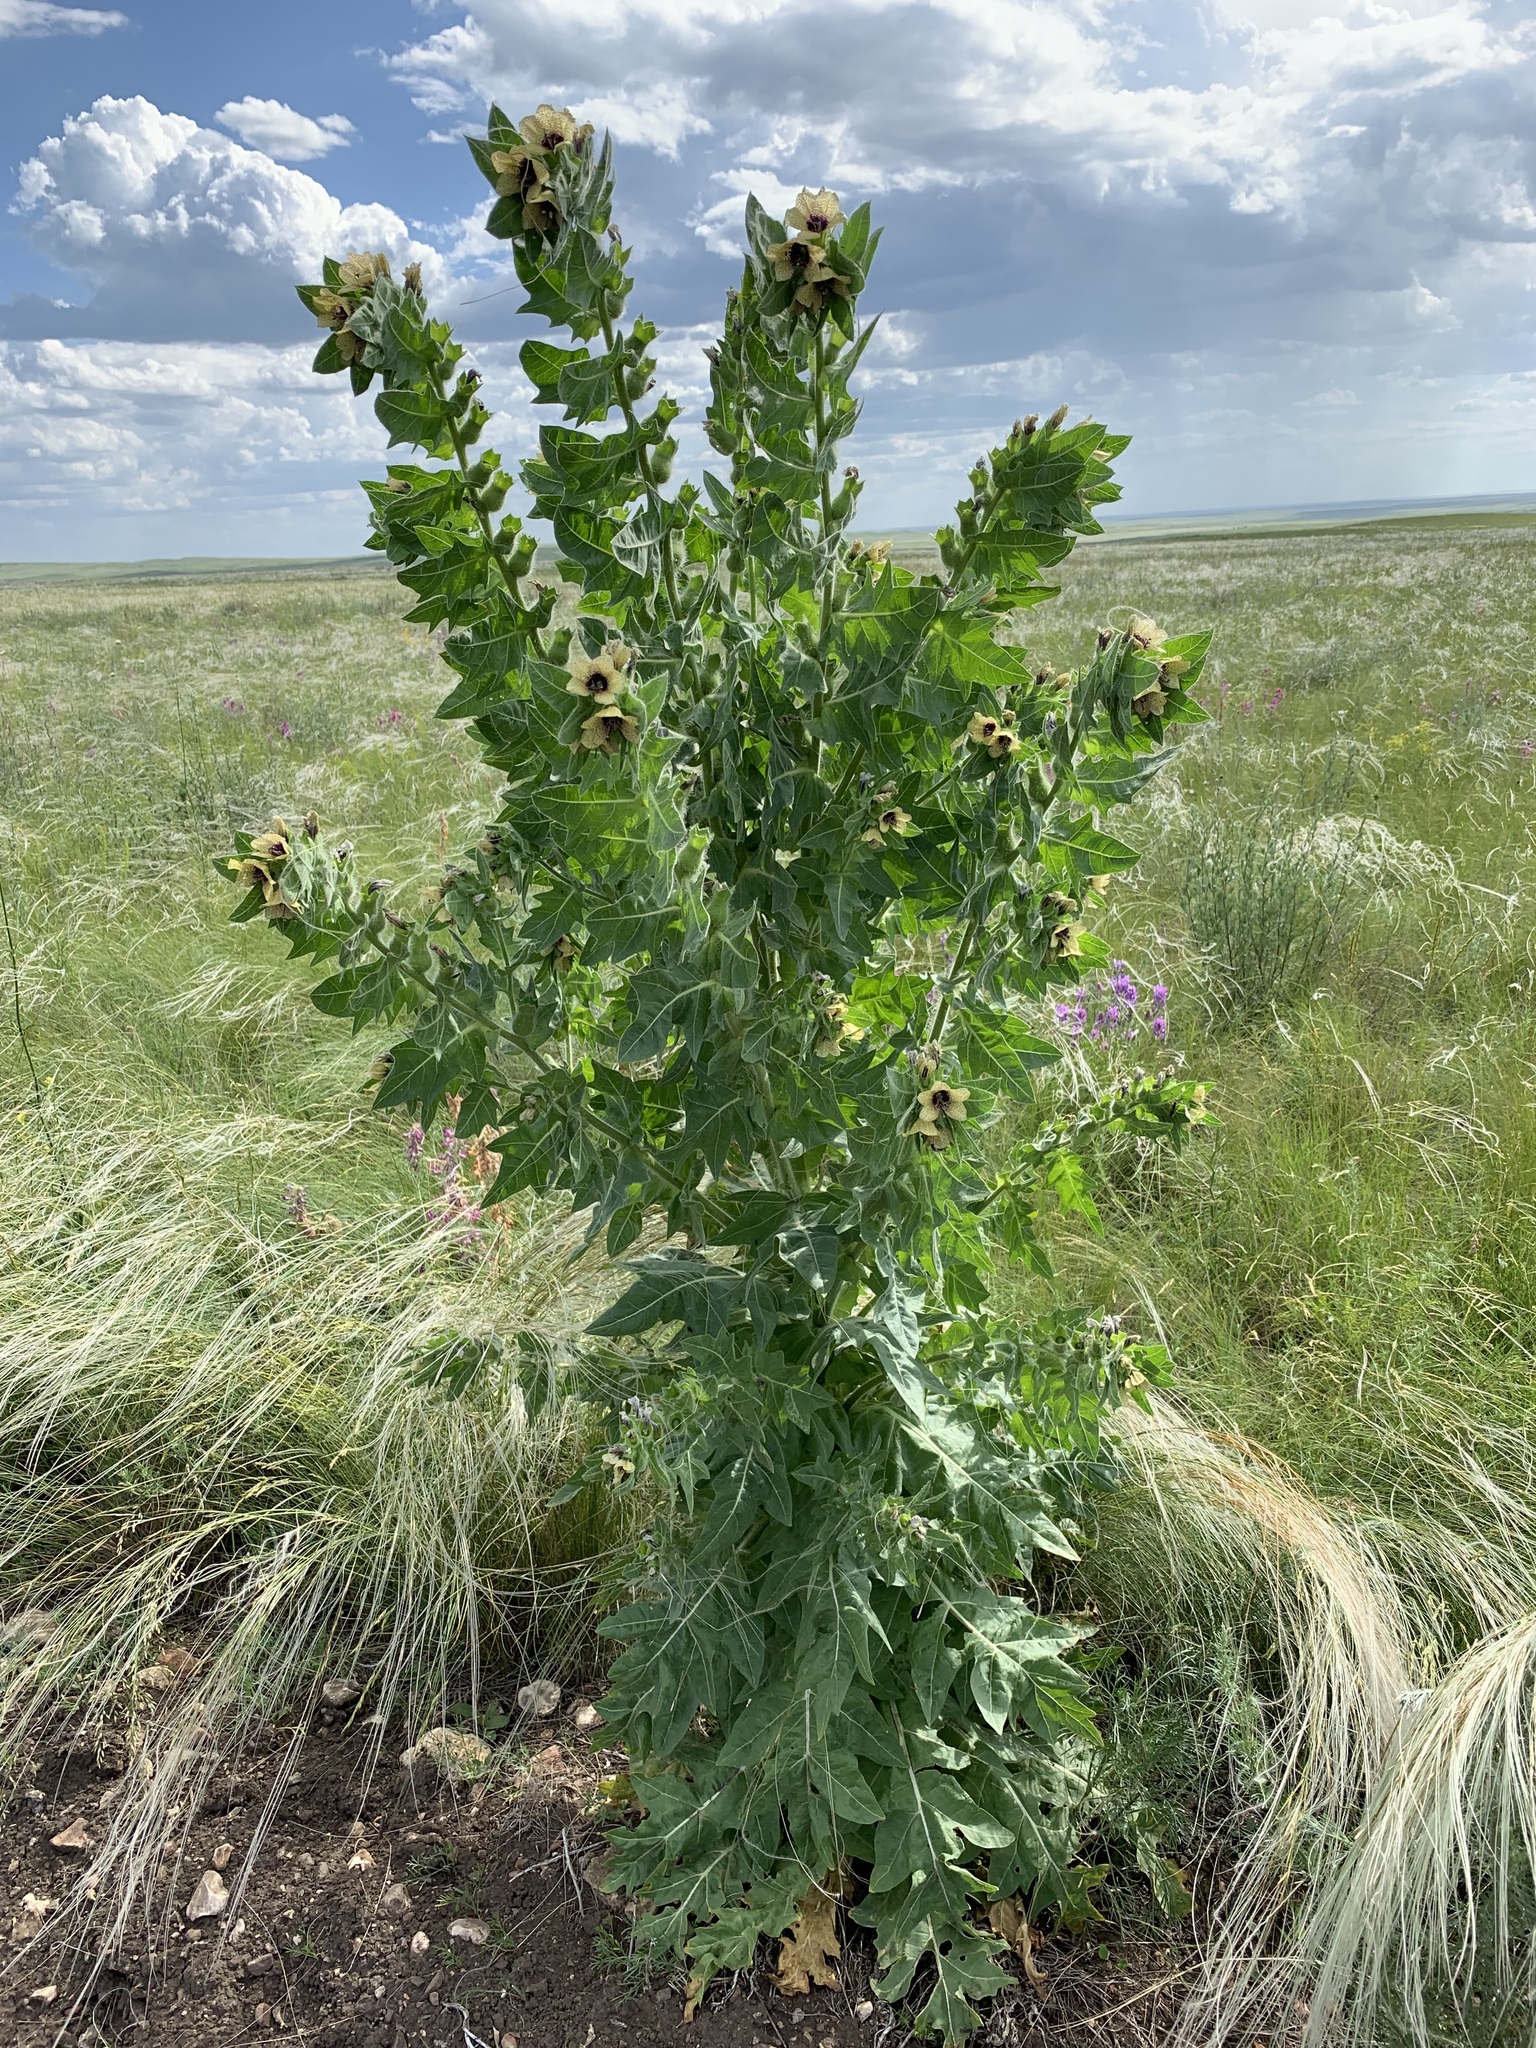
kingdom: Plantae
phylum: Tracheophyta
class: Magnoliopsida
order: Solanales
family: Solanaceae
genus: Hyoscyamus
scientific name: Hyoscyamus niger
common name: Henbane
